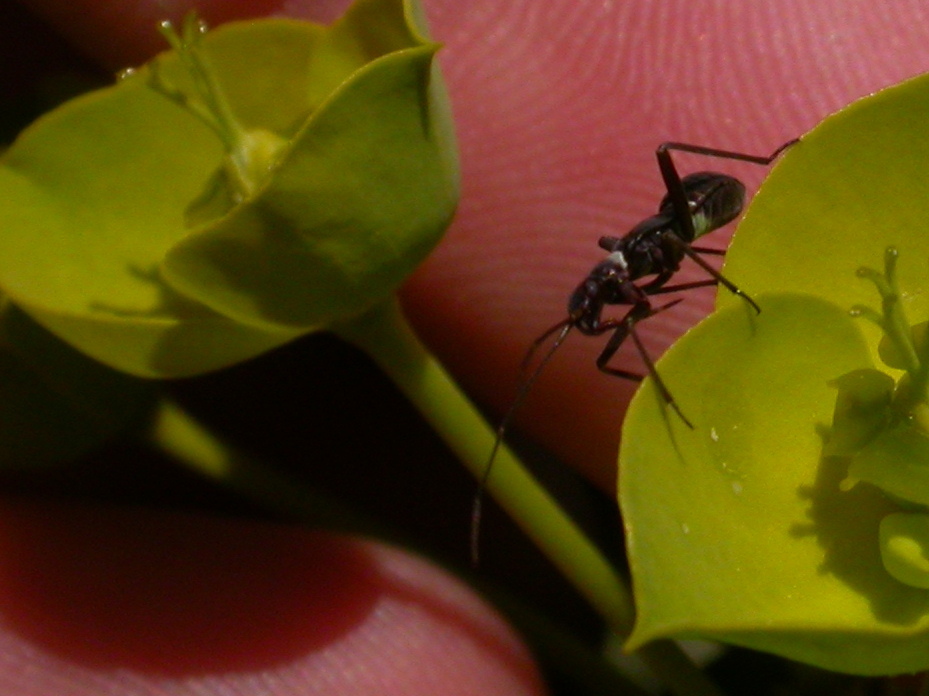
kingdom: Animalia
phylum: Arthropoda
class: Insecta
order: Hemiptera
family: Miridae
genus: Hadrodemus
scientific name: Hadrodemus m-flavum
